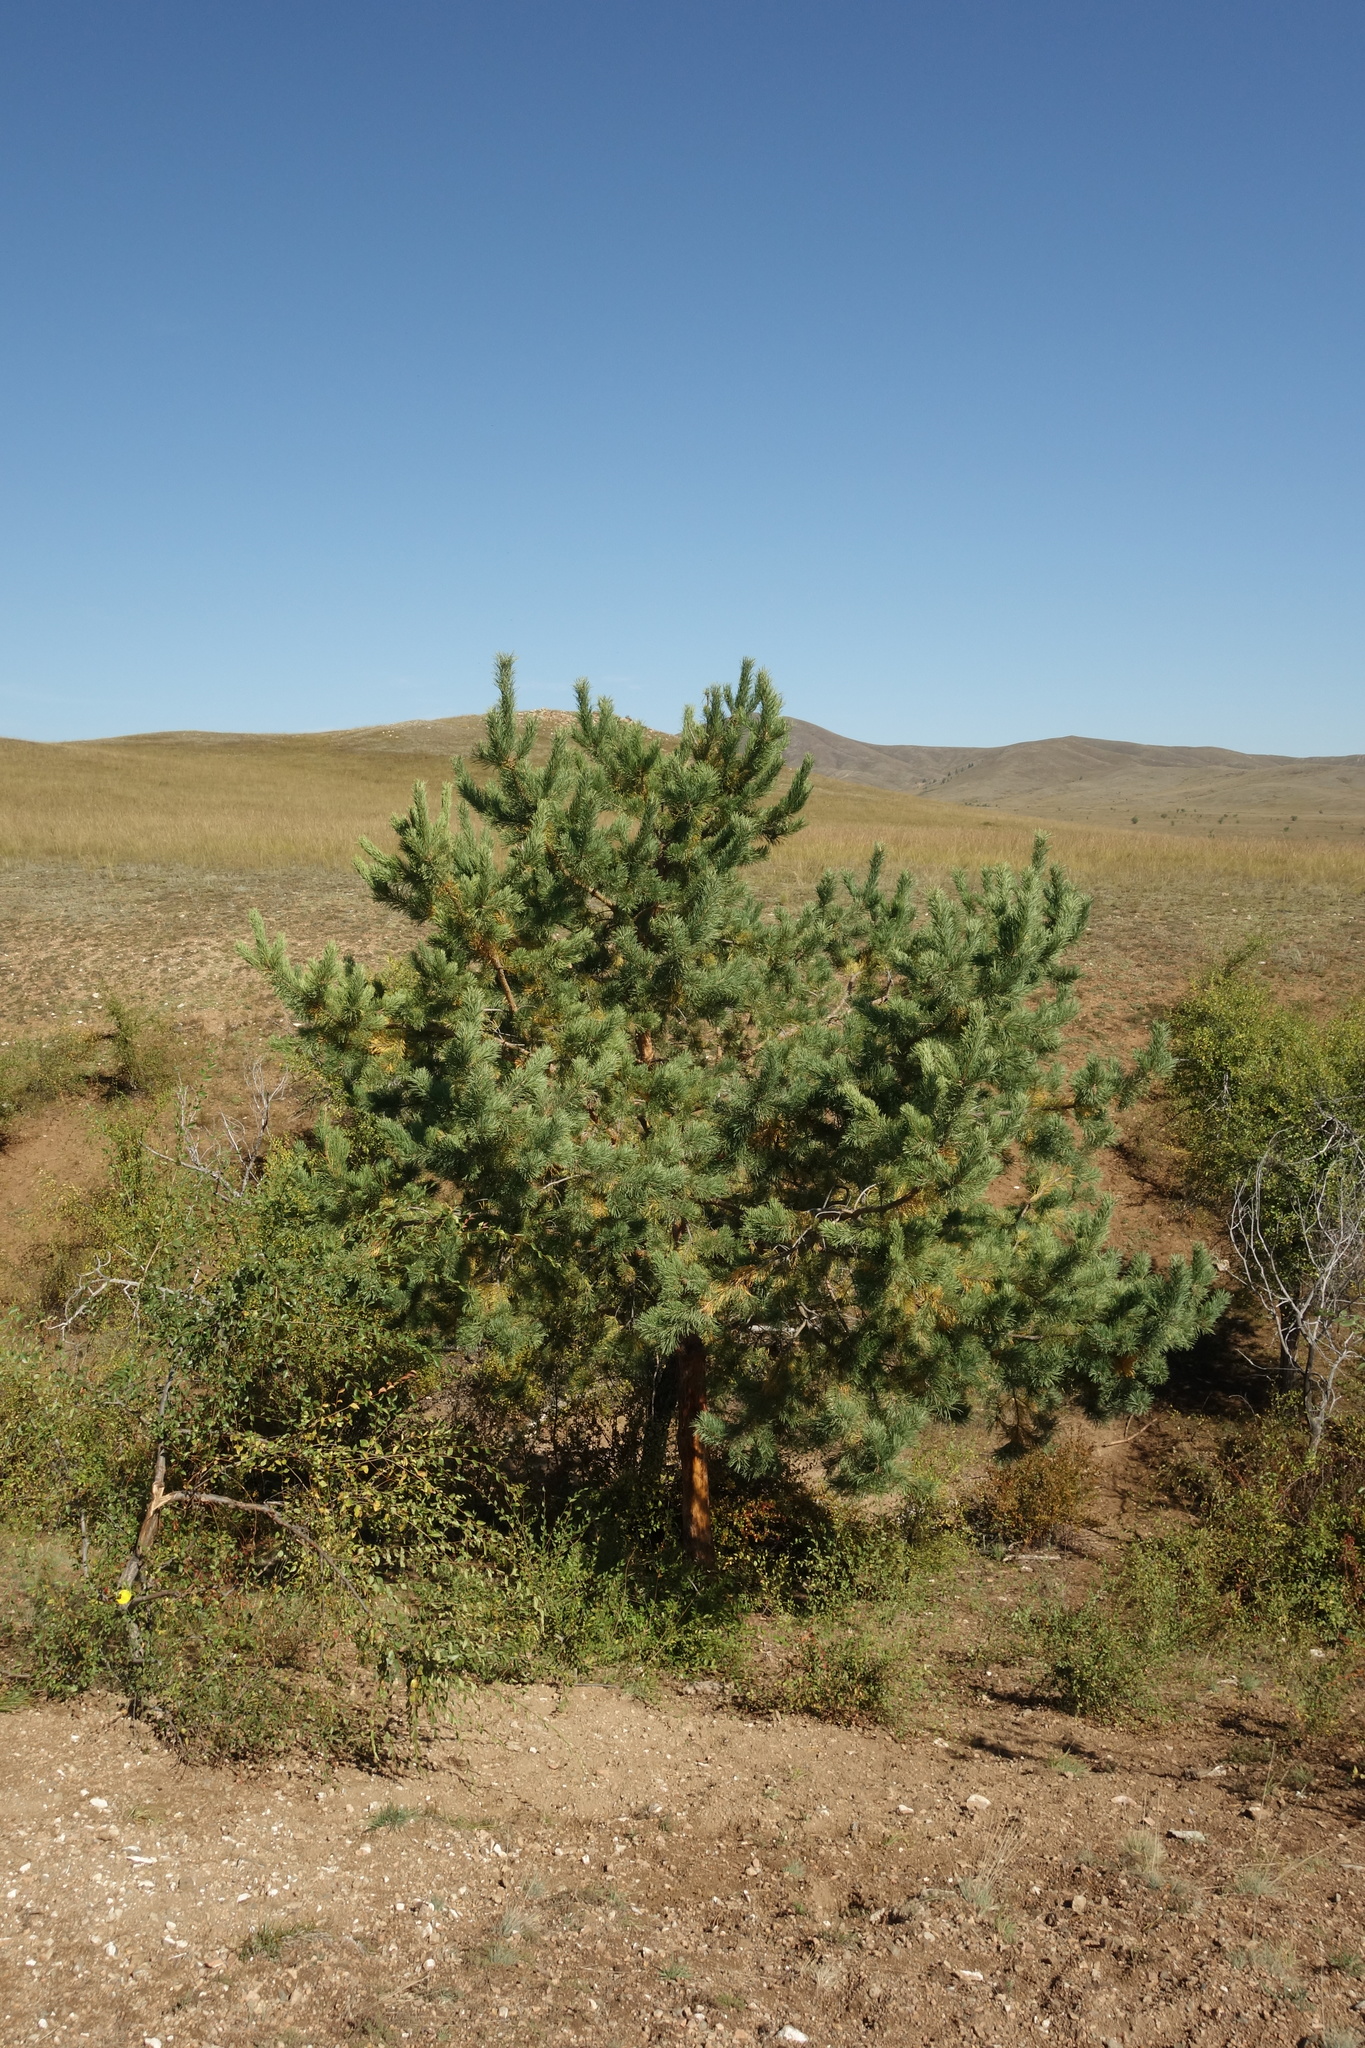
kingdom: Plantae
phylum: Tracheophyta
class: Pinopsida
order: Pinales
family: Pinaceae
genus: Pinus
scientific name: Pinus sylvestris
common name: Scots pine
